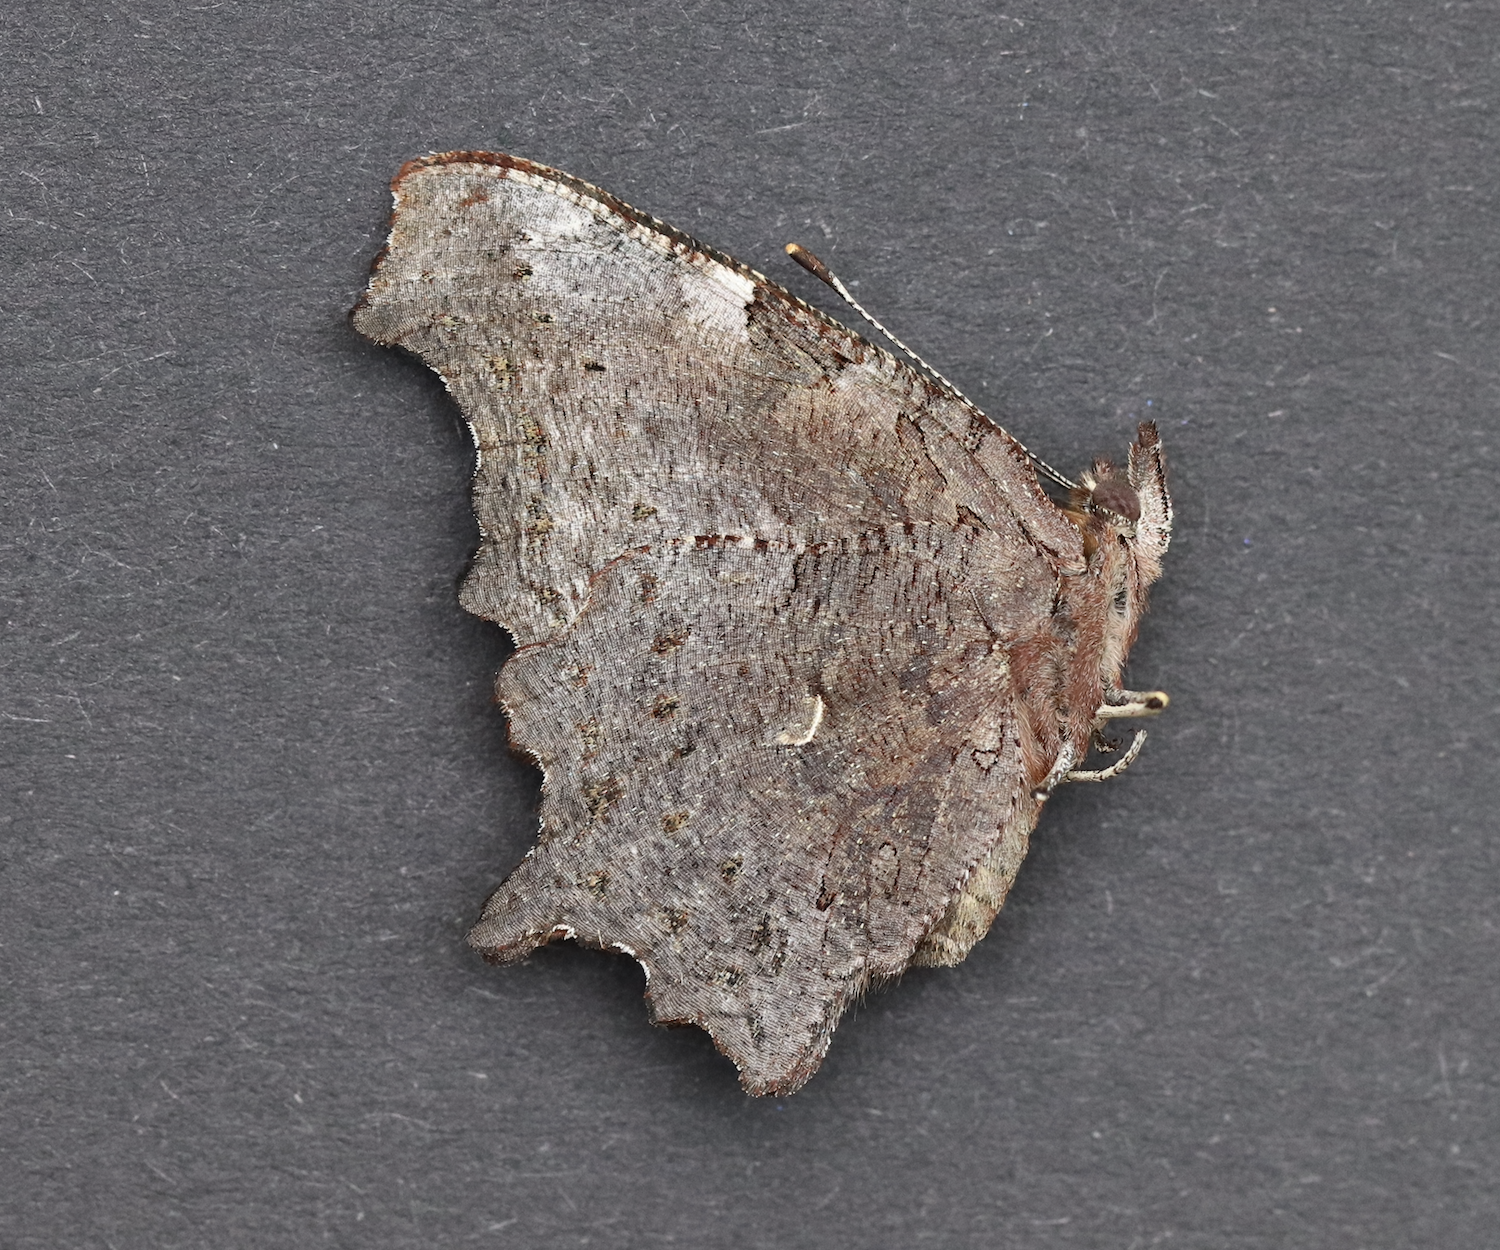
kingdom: Animalia
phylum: Arthropoda
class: Insecta
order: Lepidoptera
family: Nymphalidae
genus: Polygonia
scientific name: Polygonia faunus
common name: Green comma
